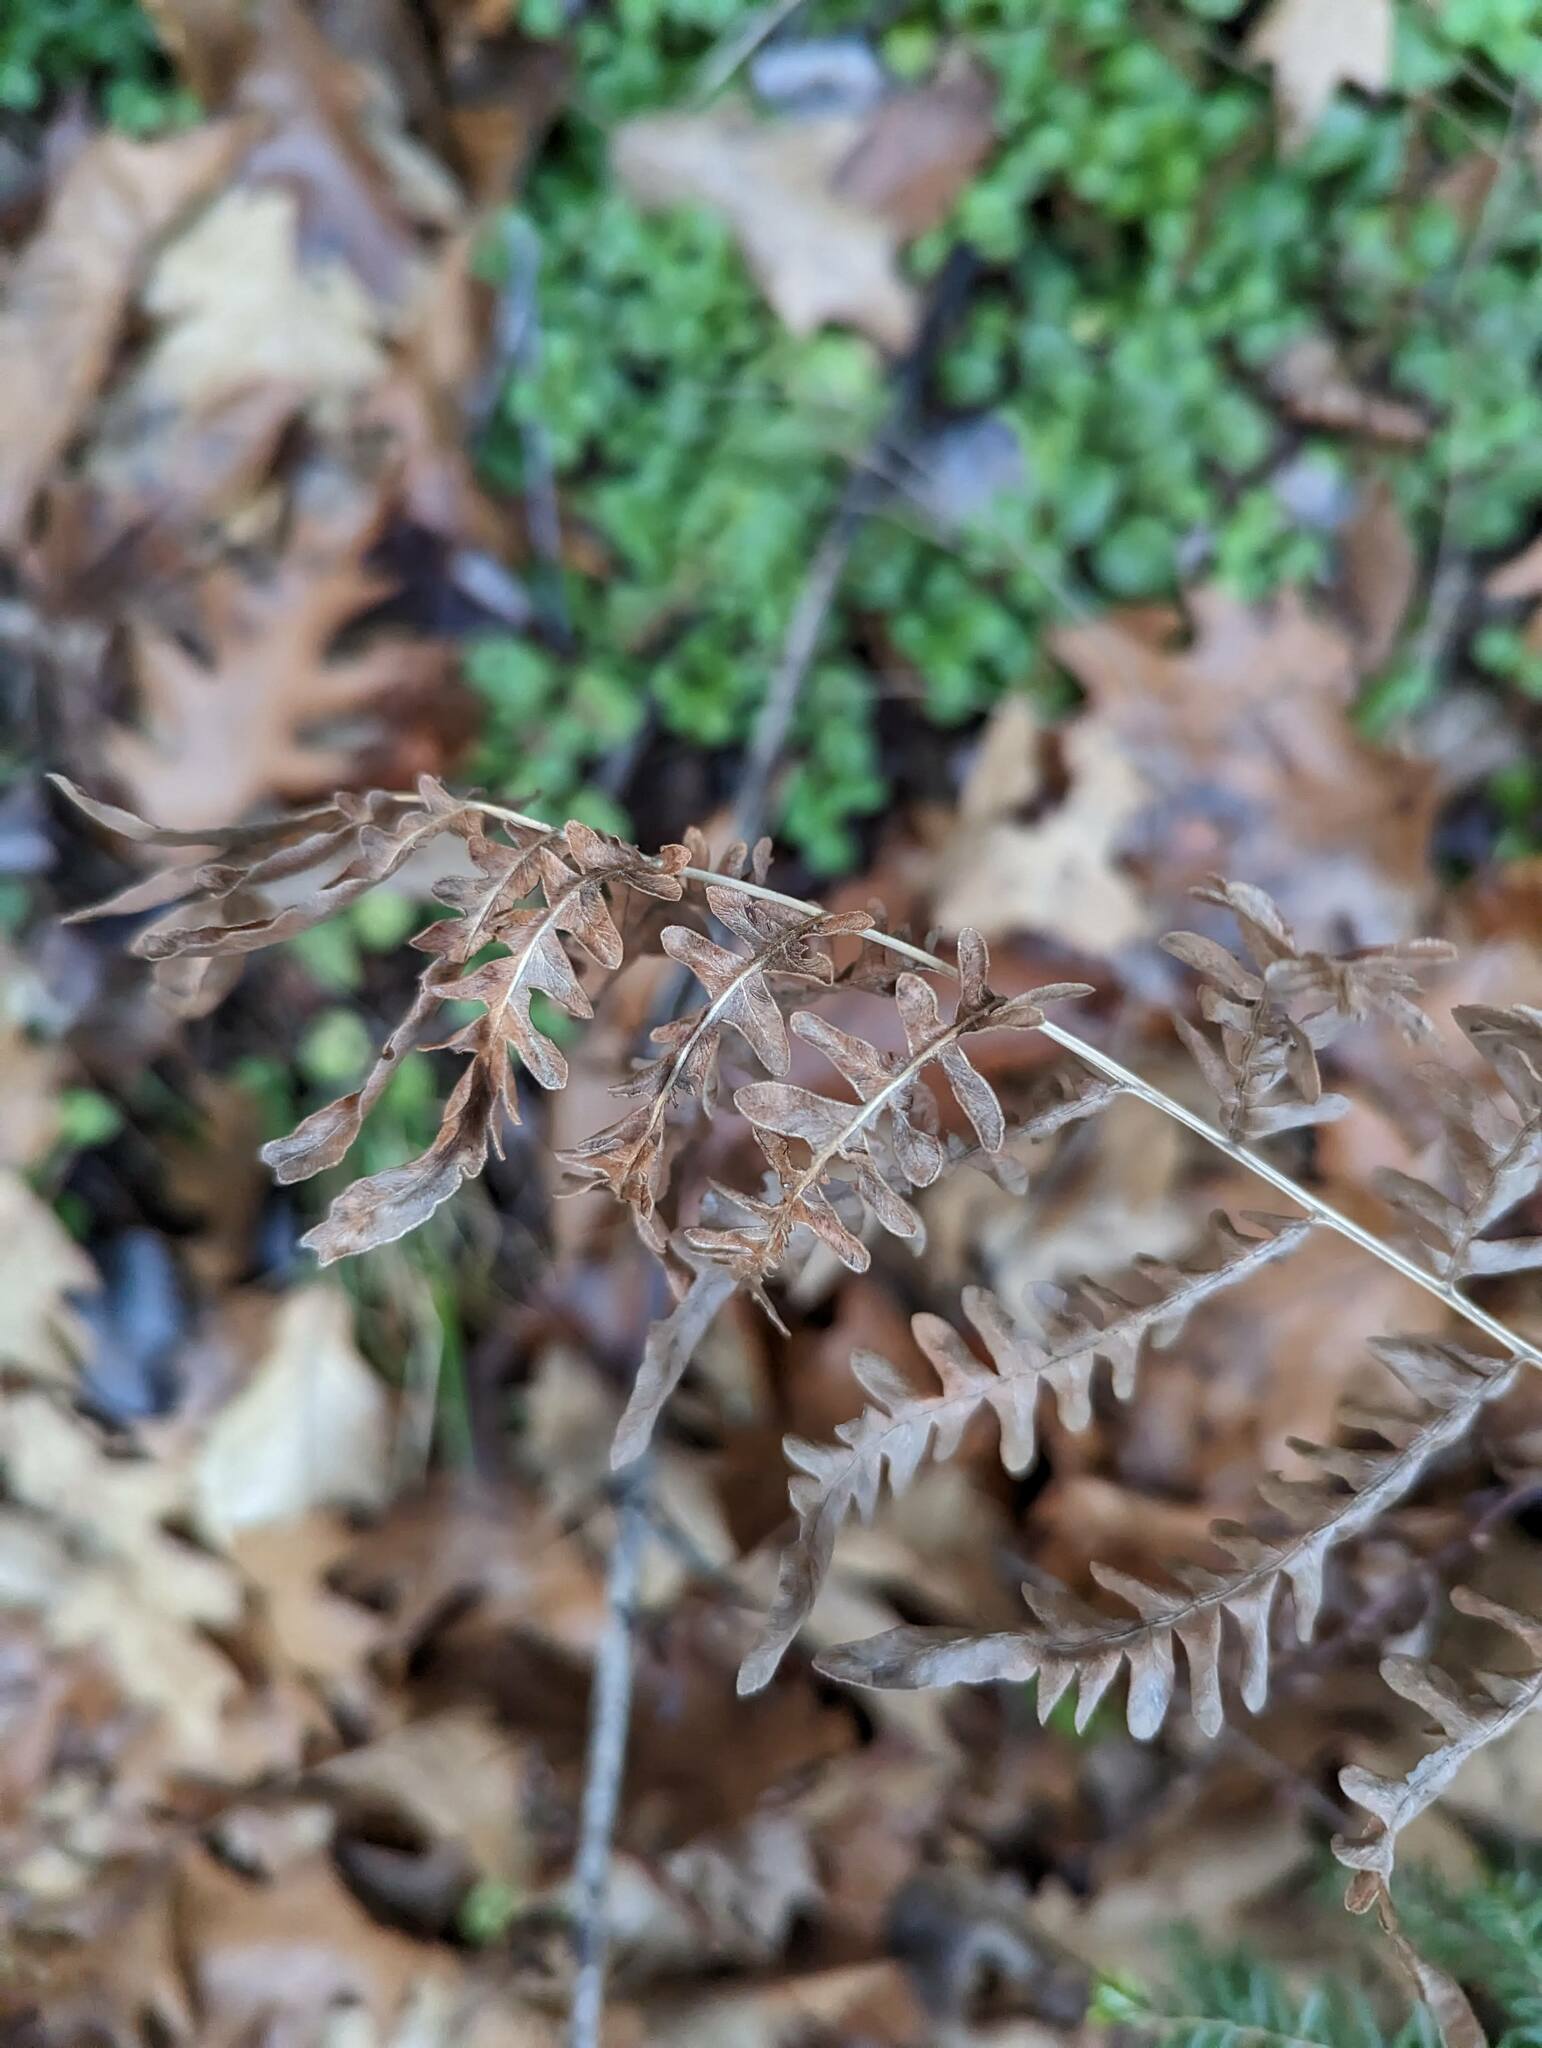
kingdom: Plantae
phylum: Tracheophyta
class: Polypodiopsida
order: Polypodiales
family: Dennstaedtiaceae
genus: Pteridium
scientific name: Pteridium aquilinum
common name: Bracken
